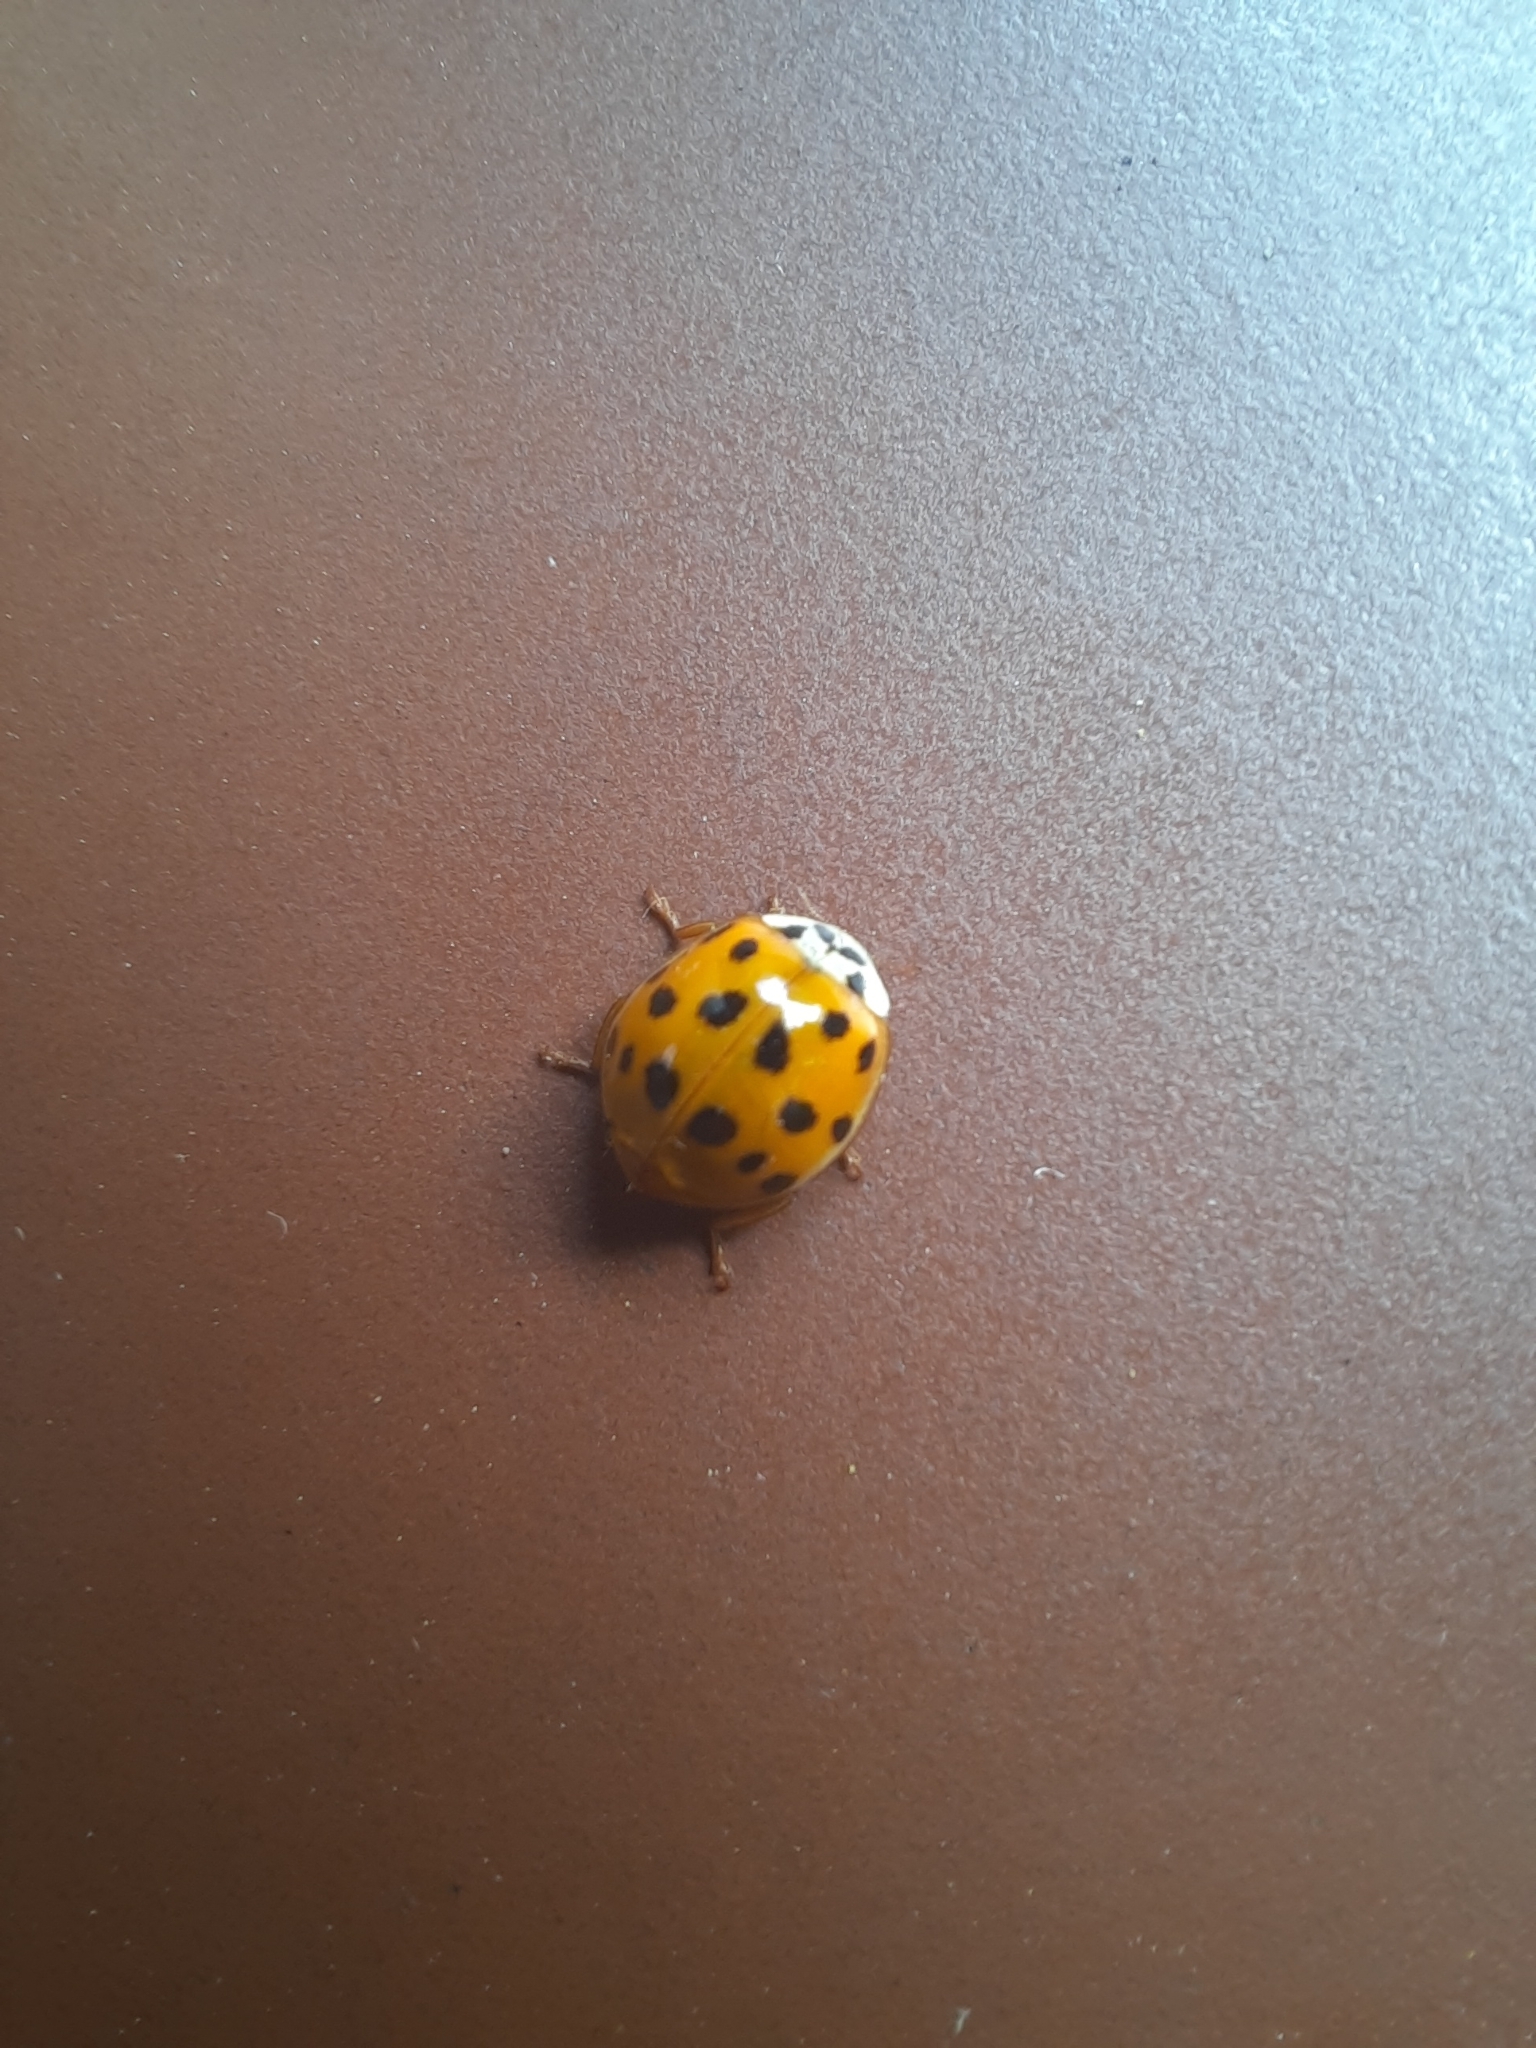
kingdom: Animalia
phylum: Arthropoda
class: Insecta
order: Coleoptera
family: Coccinellidae
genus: Harmonia
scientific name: Harmonia axyridis
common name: Harlequin ladybird
